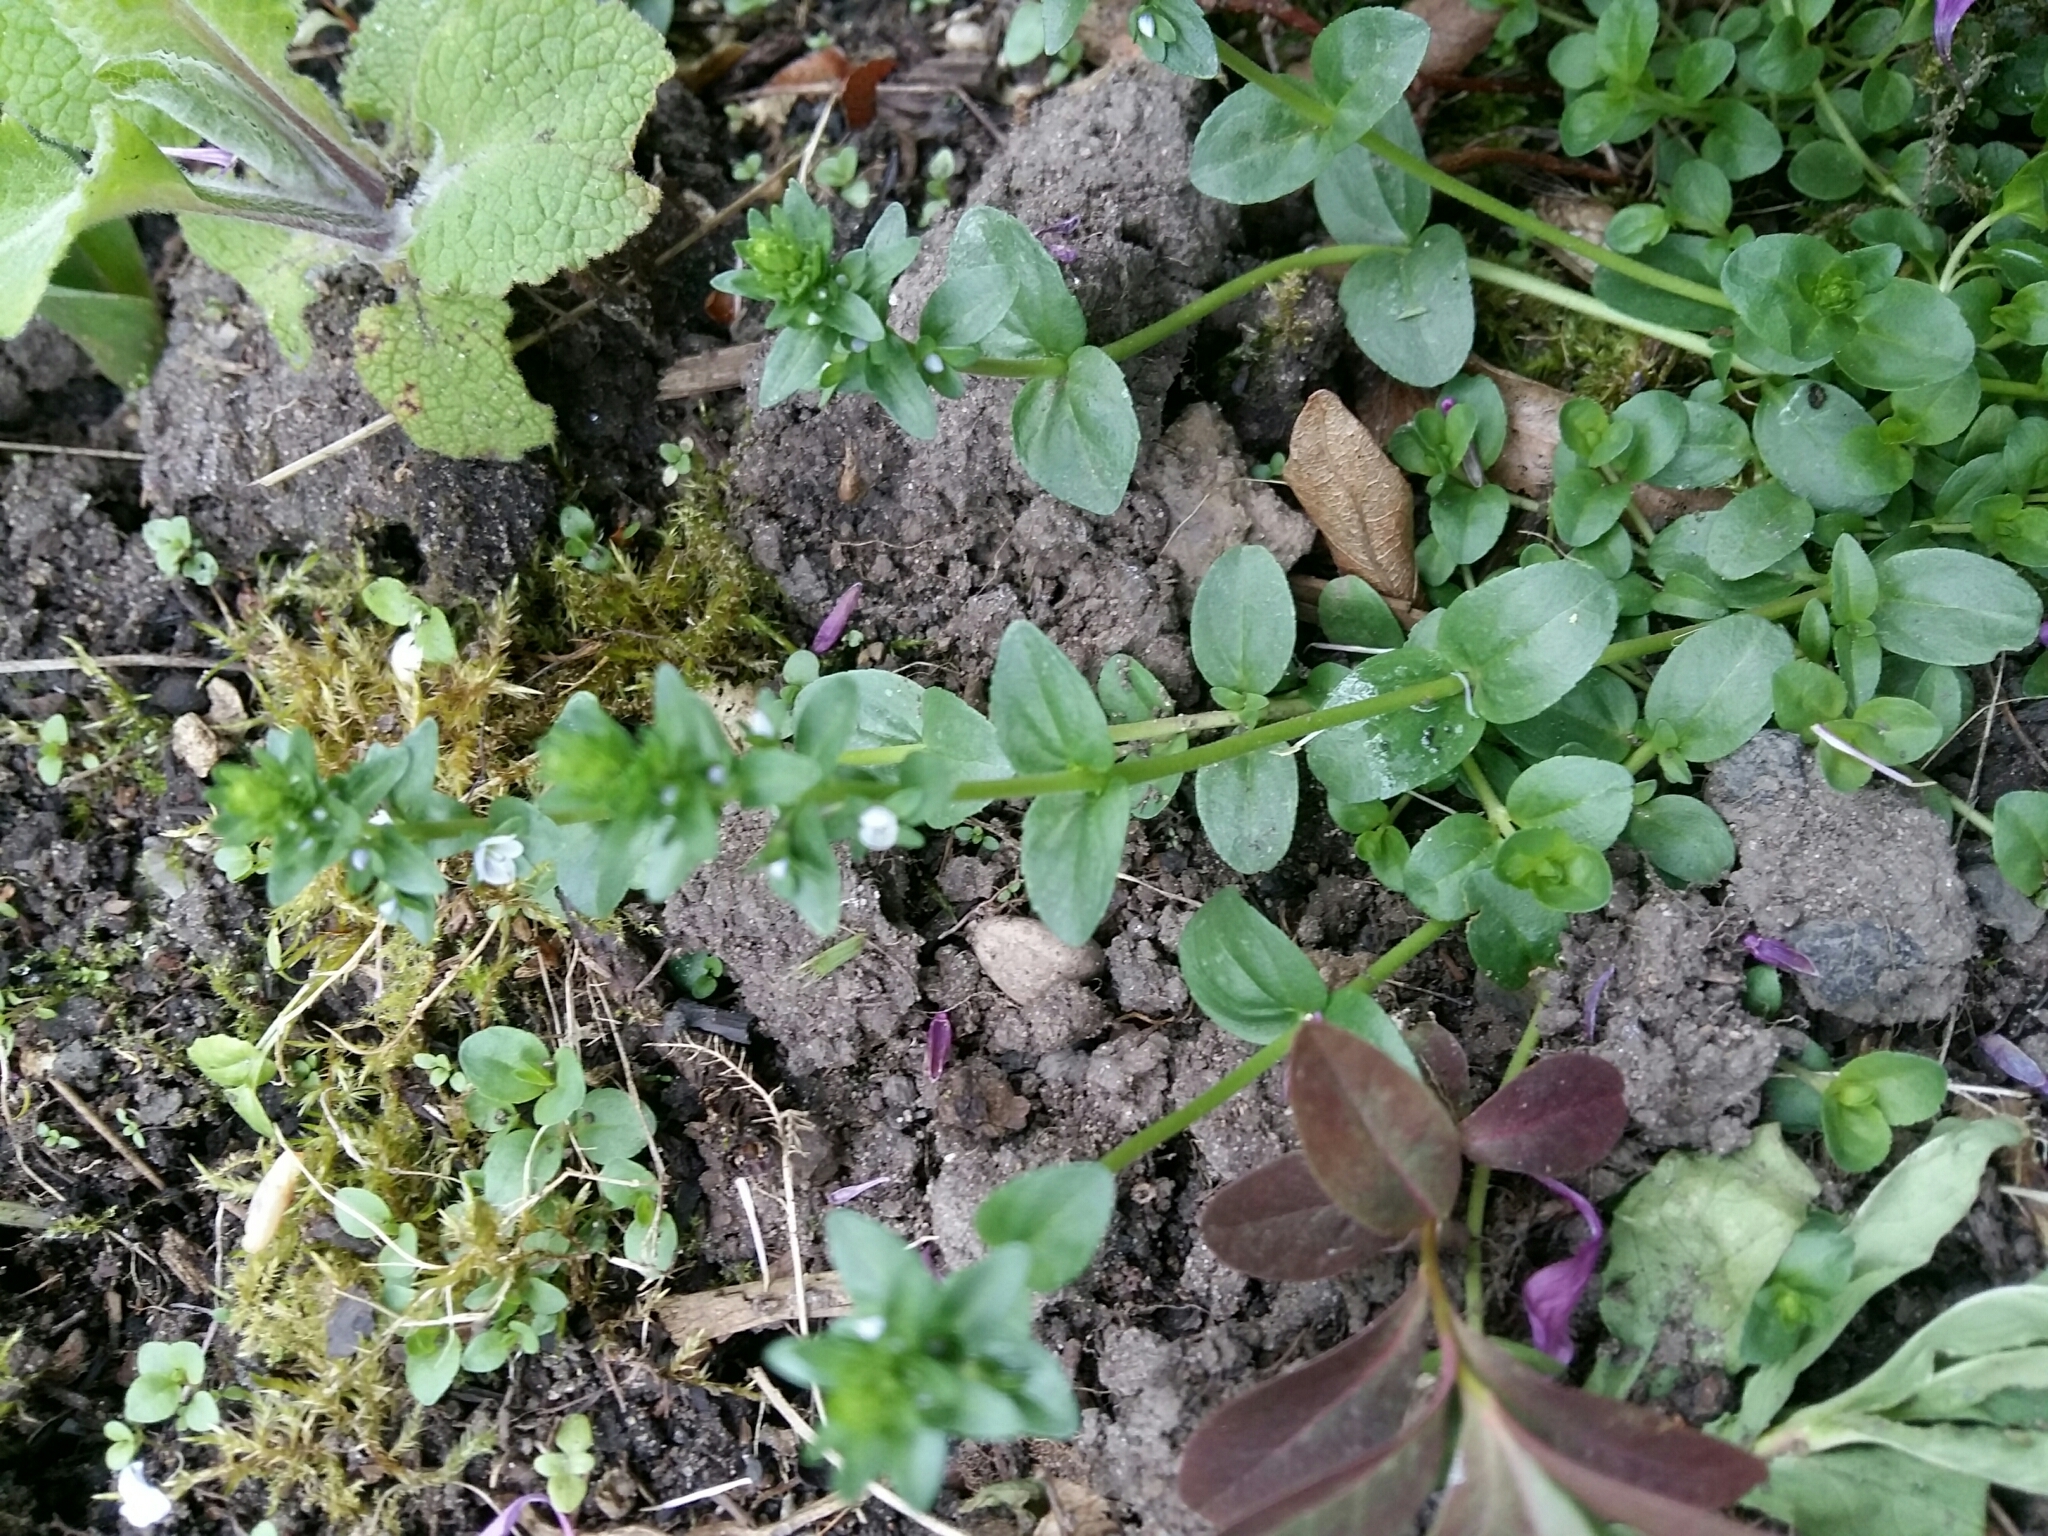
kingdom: Plantae
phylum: Tracheophyta
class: Magnoliopsida
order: Lamiales
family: Plantaginaceae
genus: Veronica
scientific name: Veronica serpyllifolia
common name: Thyme-leaved speedwell
